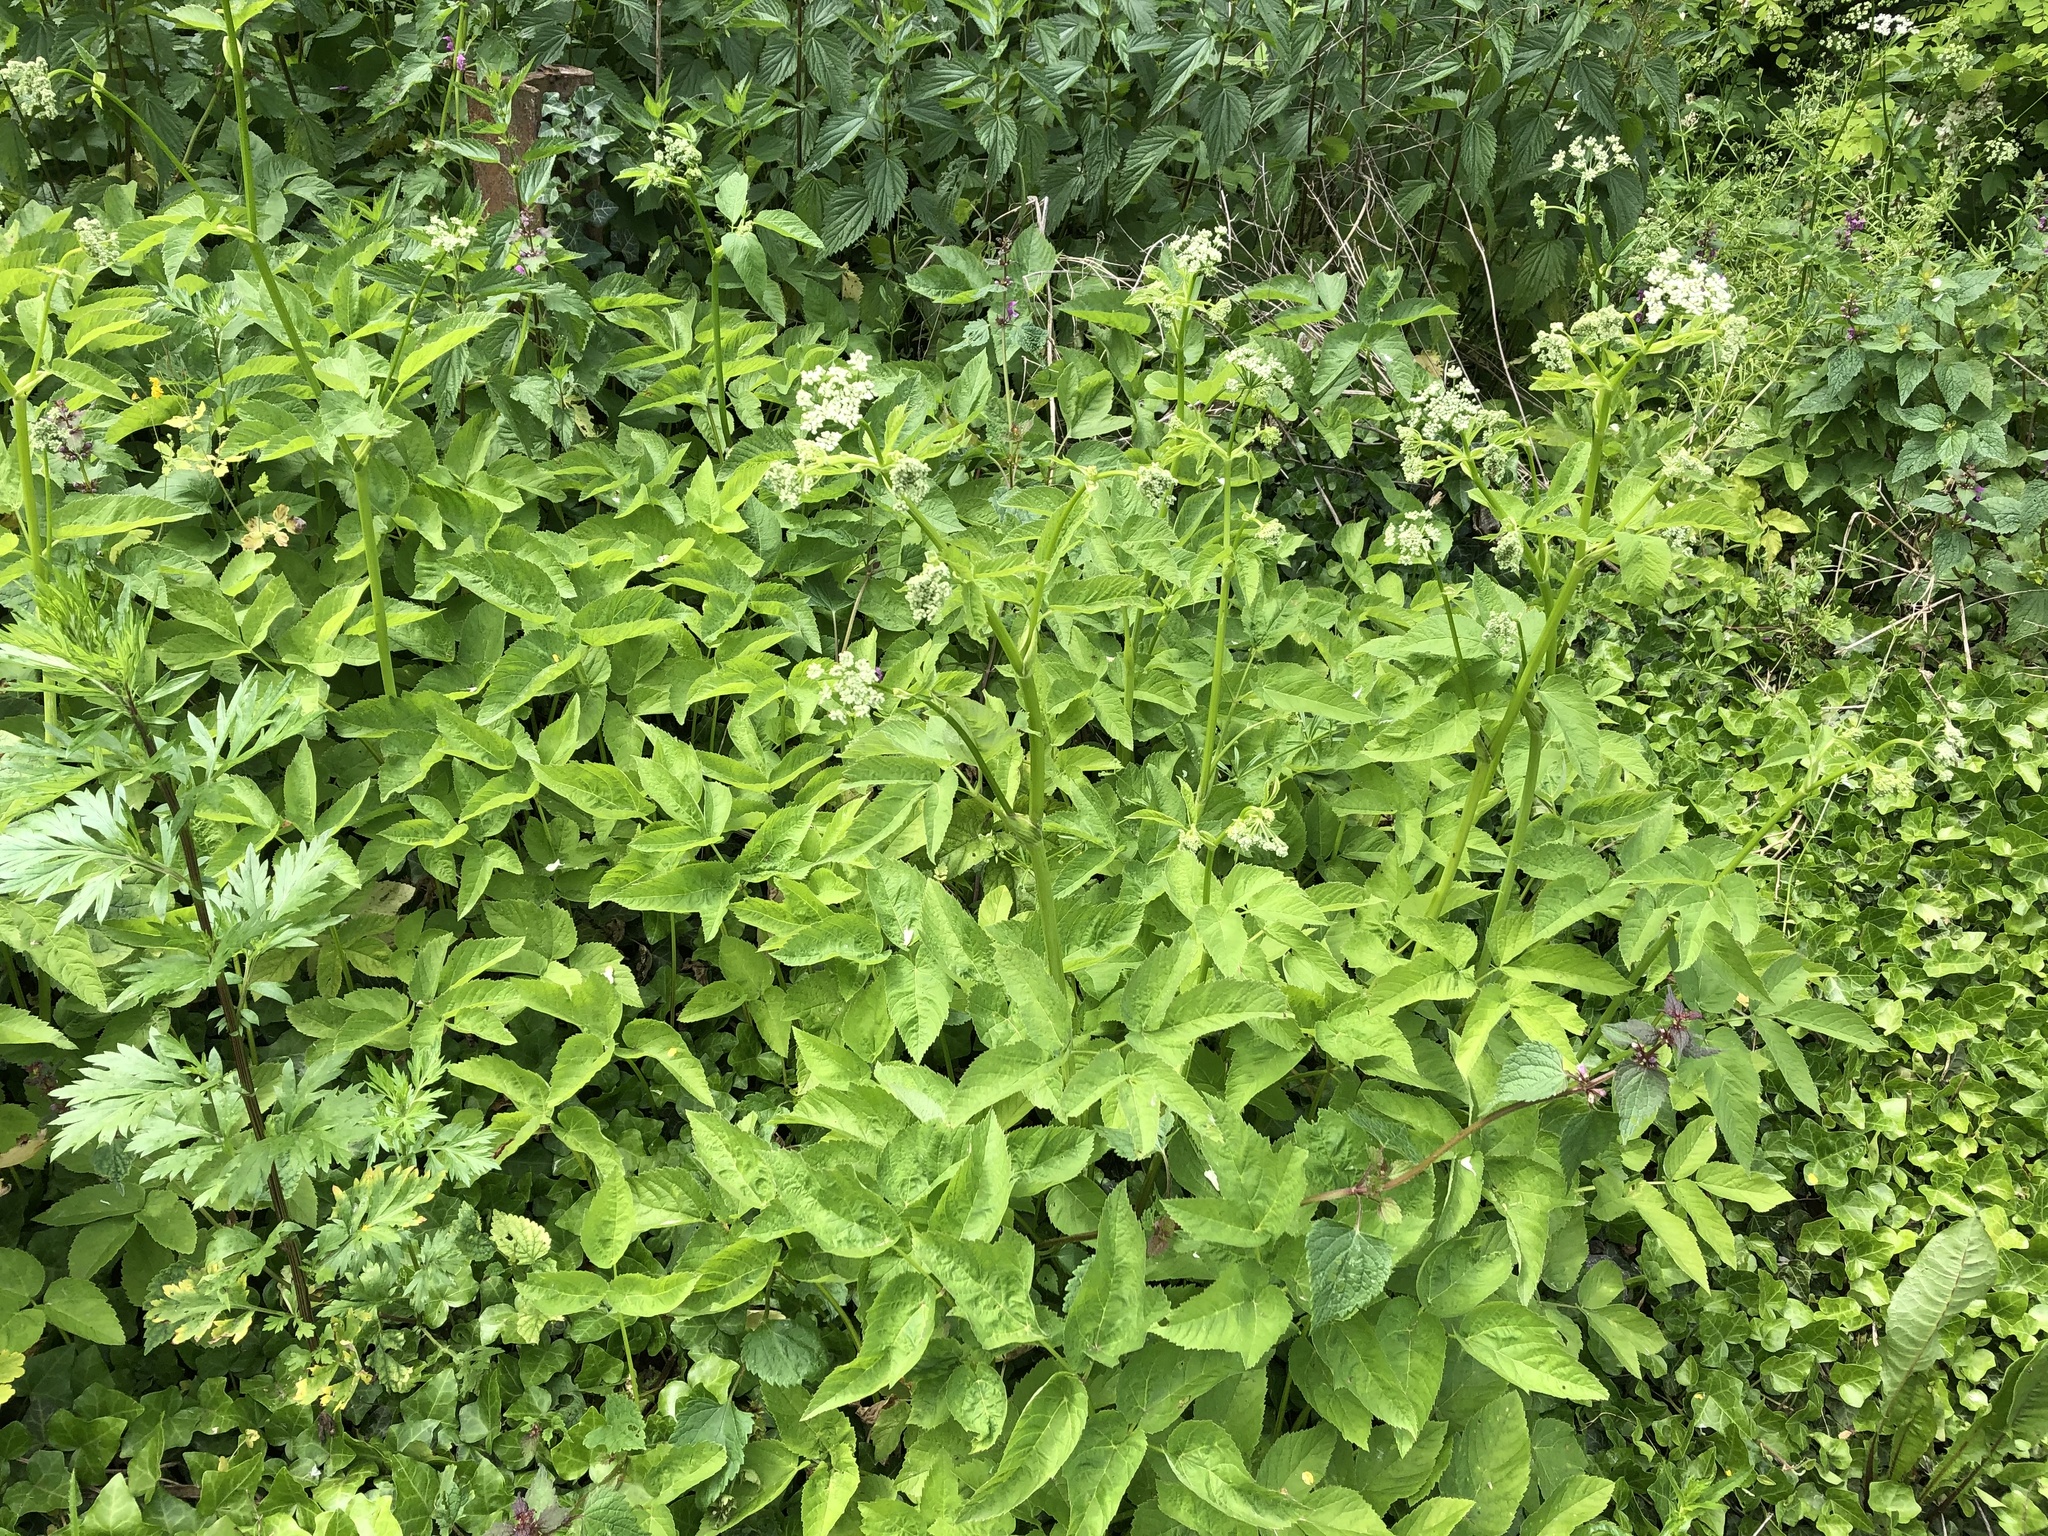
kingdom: Plantae
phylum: Tracheophyta
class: Magnoliopsida
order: Apiales
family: Apiaceae
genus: Aegopodium
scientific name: Aegopodium podagraria
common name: Ground-elder
